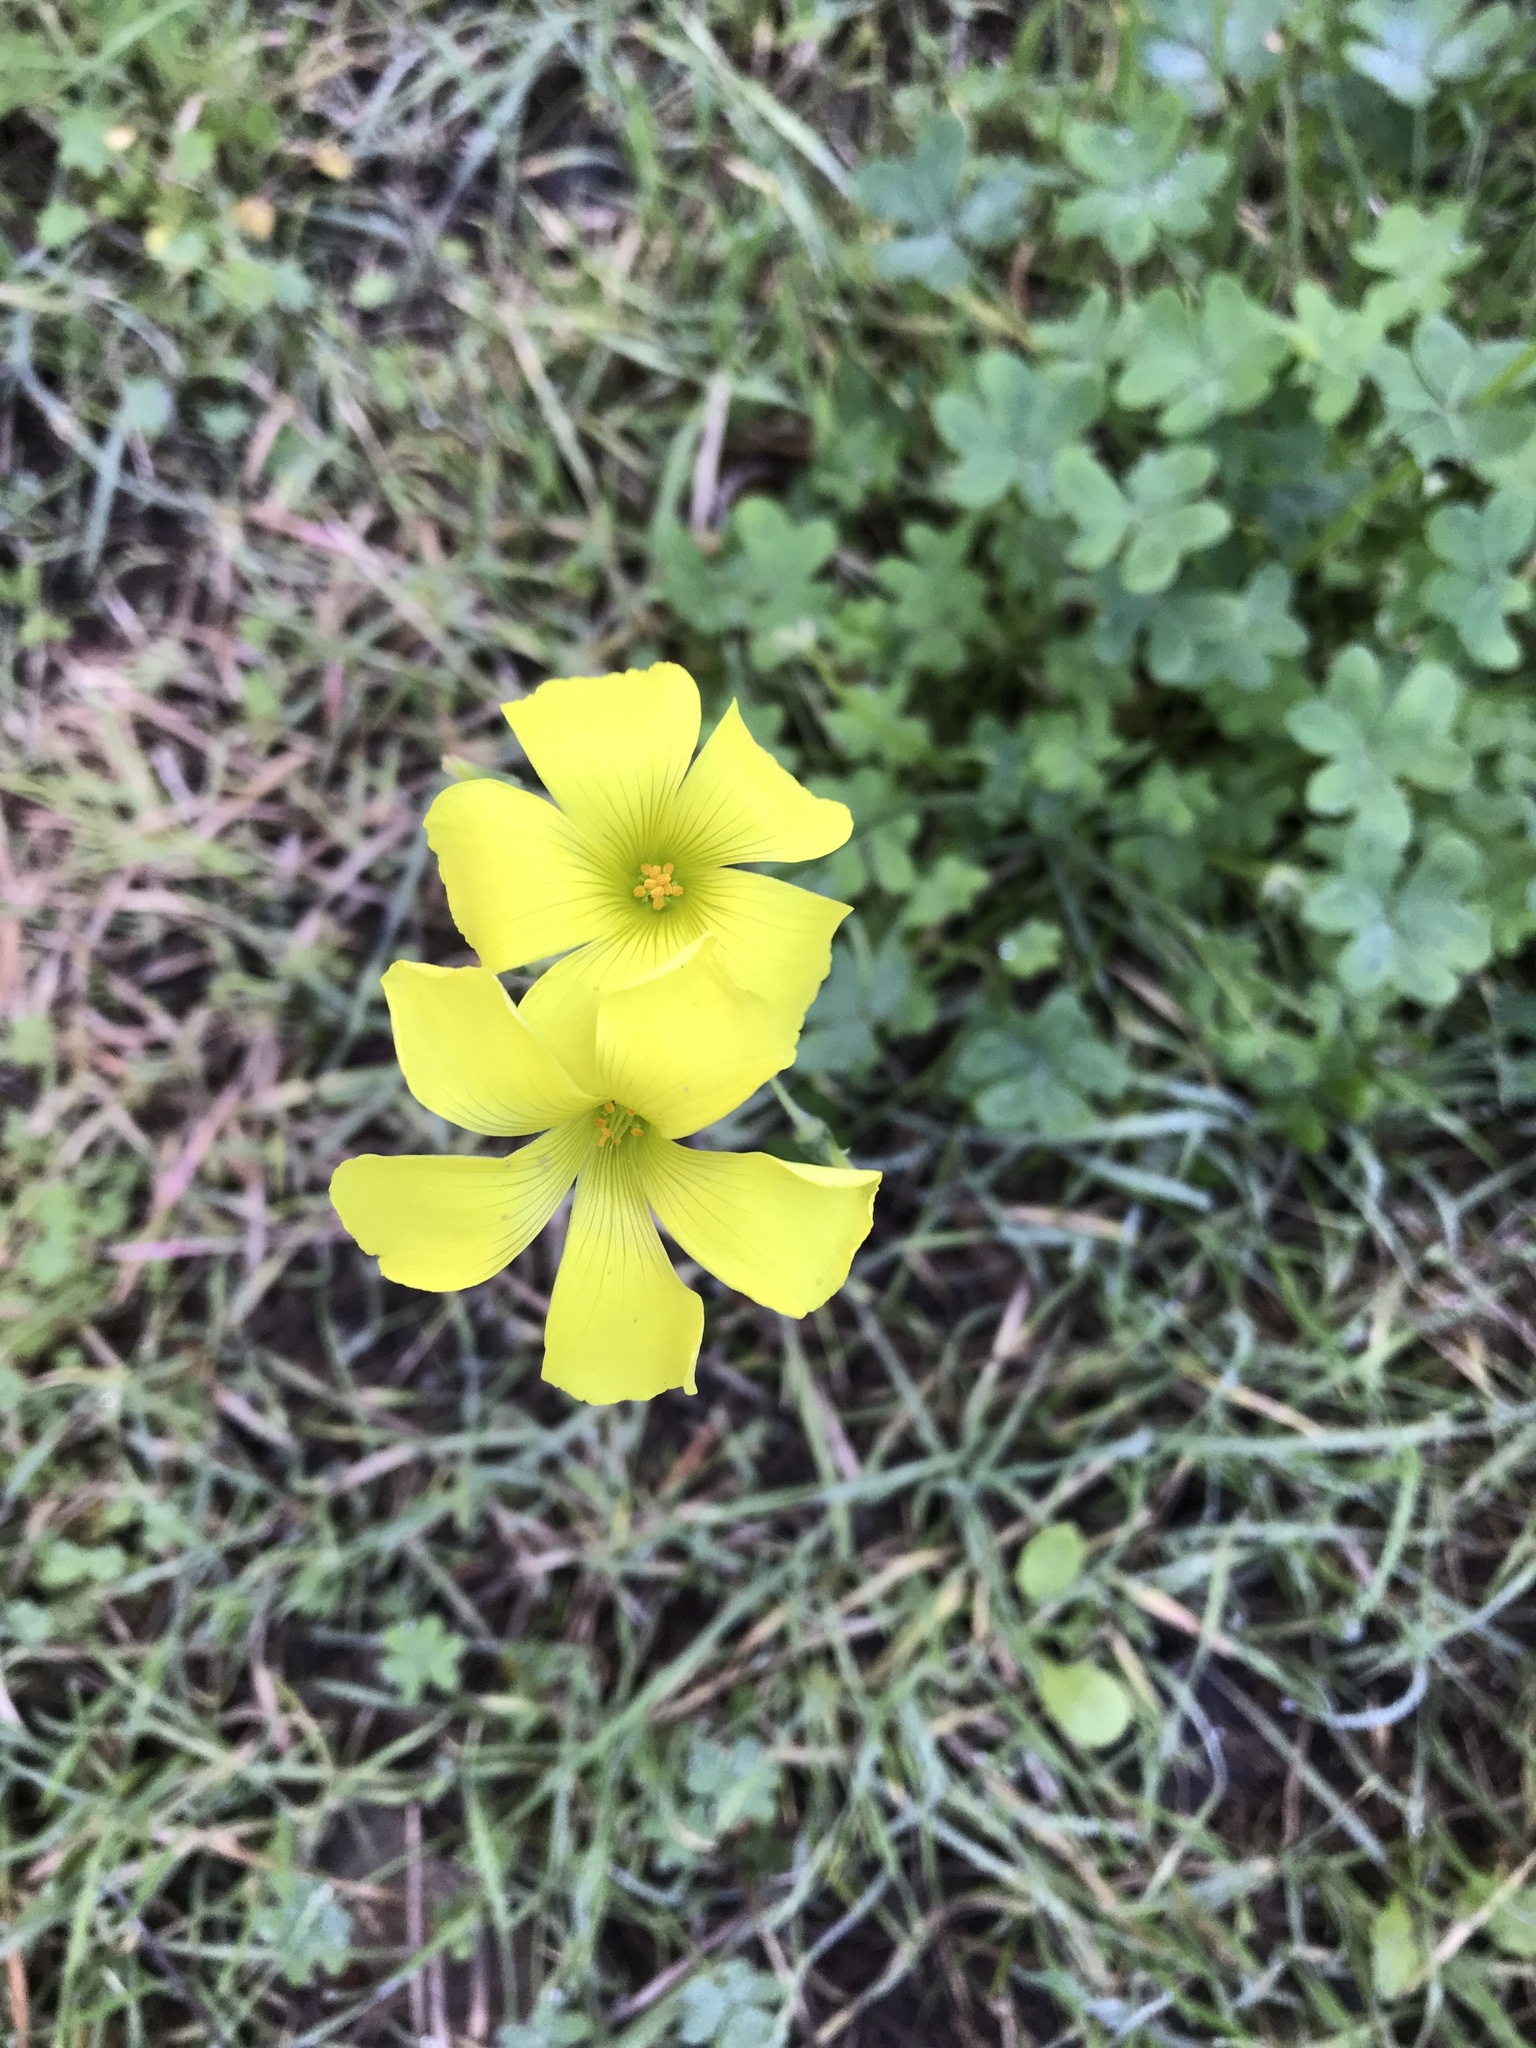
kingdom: Plantae
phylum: Tracheophyta
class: Magnoliopsida
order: Oxalidales
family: Oxalidaceae
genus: Oxalis
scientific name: Oxalis pes-caprae
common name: Bermuda-buttercup
